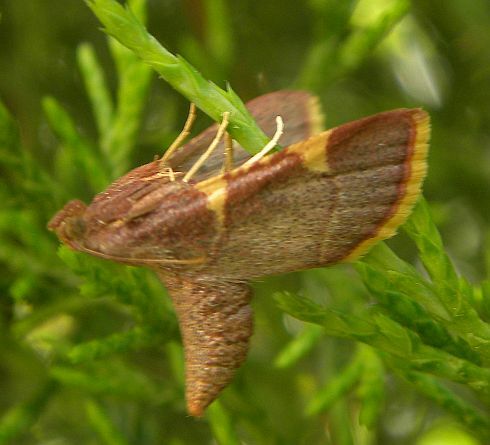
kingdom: Animalia
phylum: Arthropoda
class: Insecta
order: Lepidoptera
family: Pyralidae
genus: Hypsopygia
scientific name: Hypsopygia olinalis
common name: Yellow-fringed dolichomia moth
